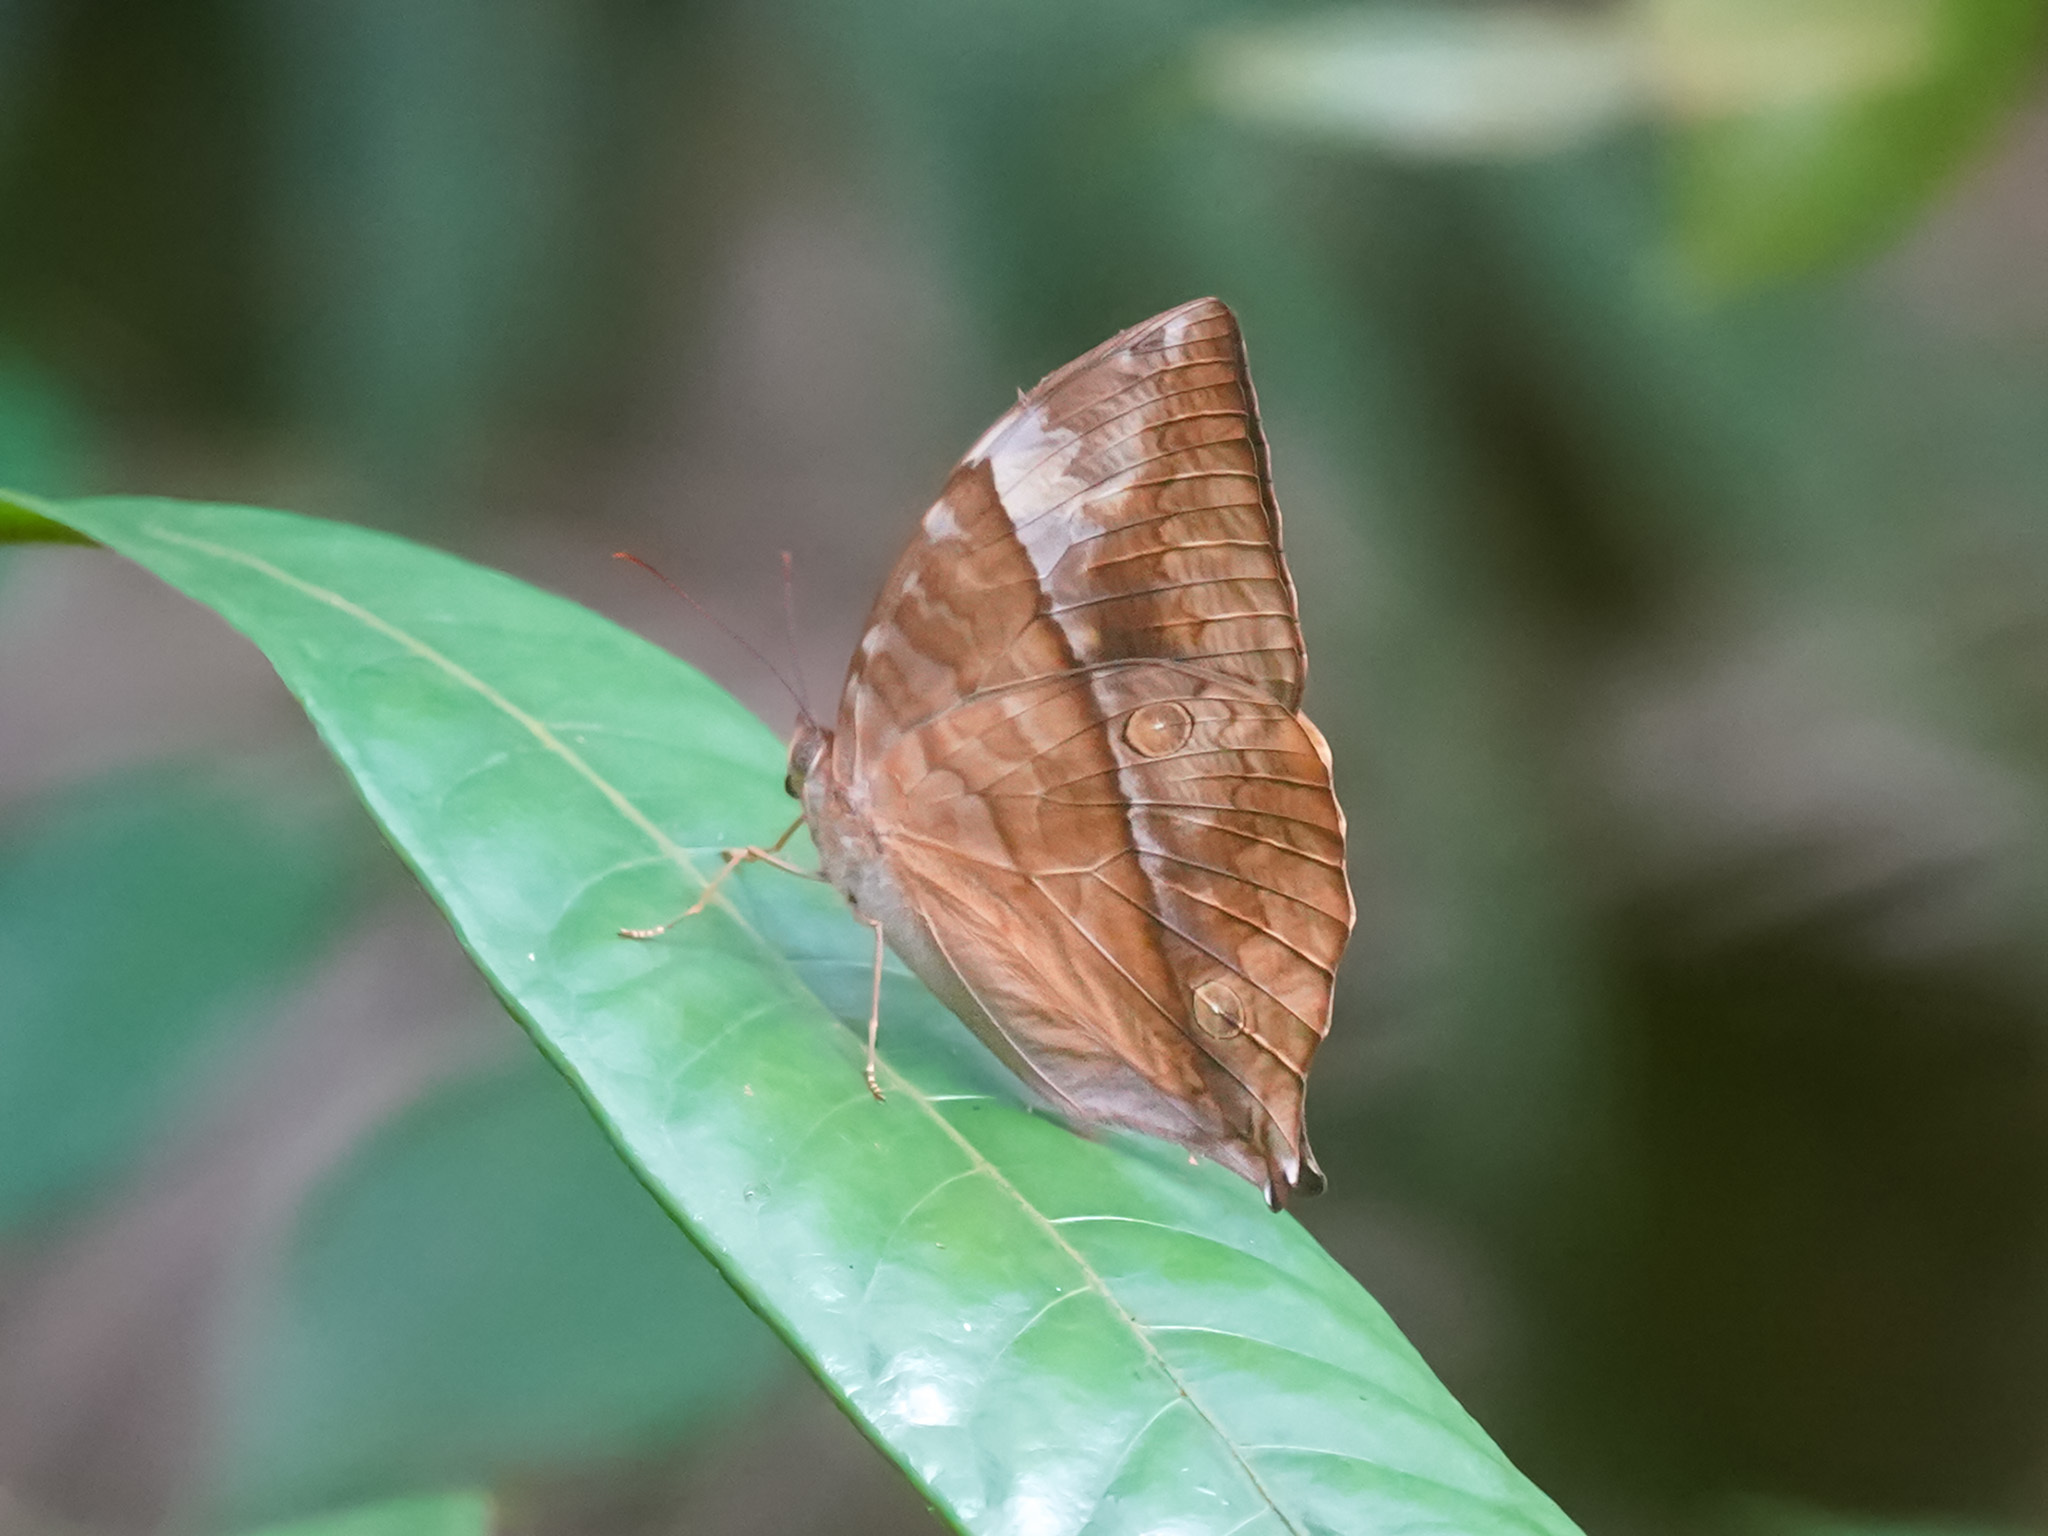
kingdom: Animalia
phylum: Arthropoda
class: Insecta
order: Lepidoptera
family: Nymphalidae
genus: Zeuxidia
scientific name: Zeuxidia amethysta
